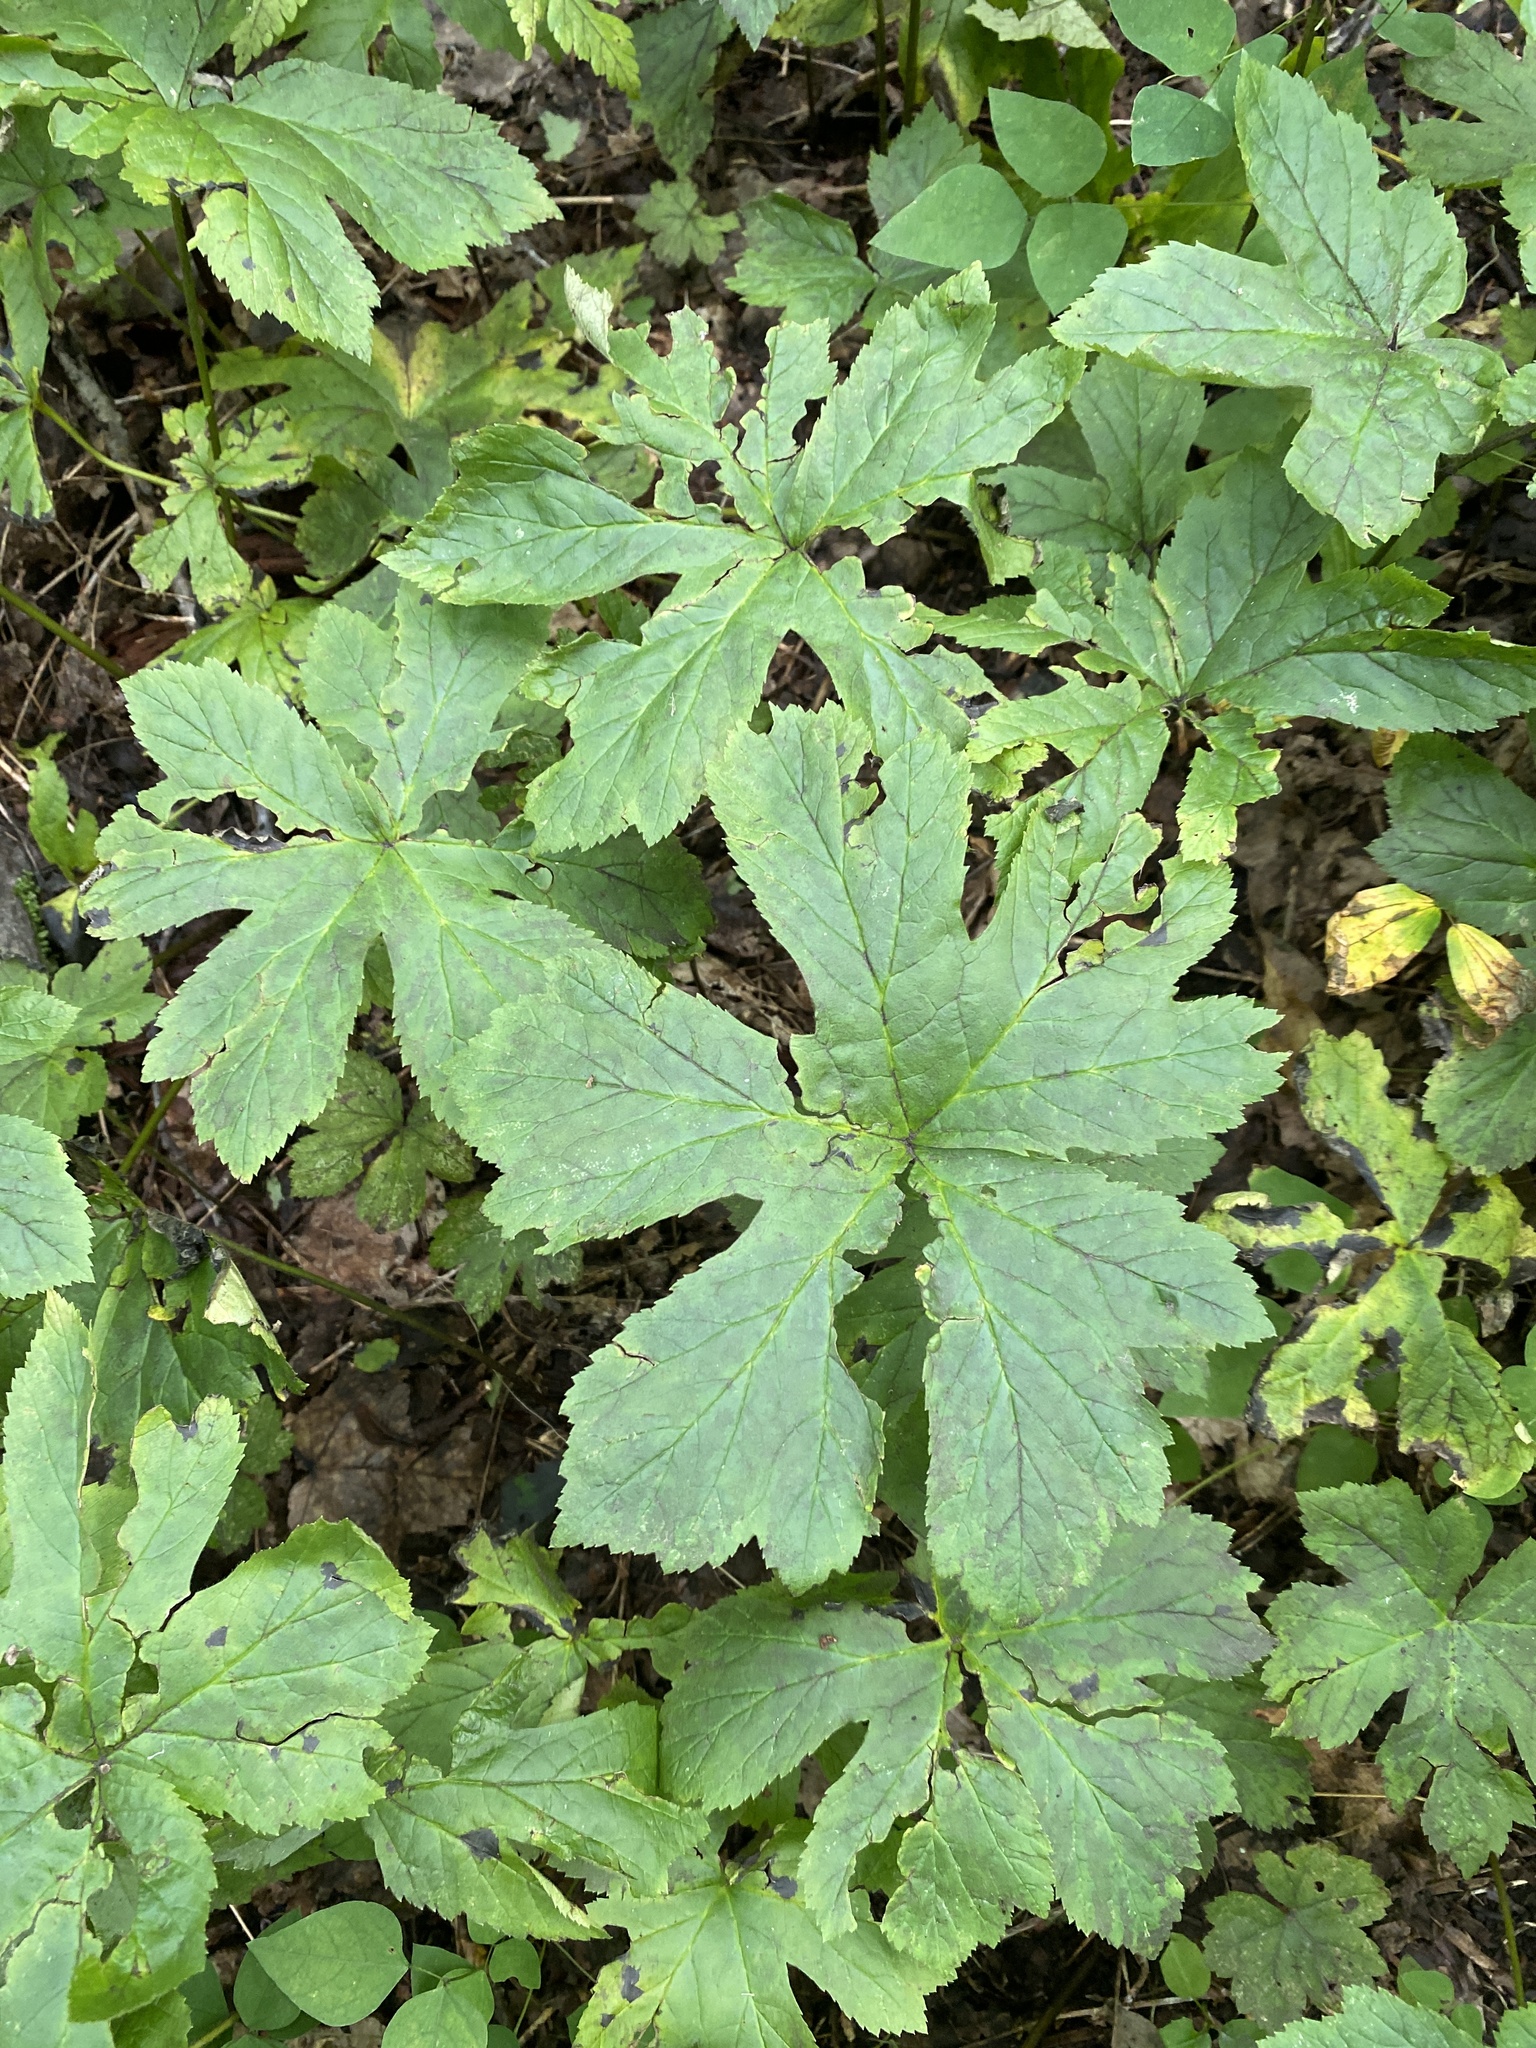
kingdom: Plantae
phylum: Tracheophyta
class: Magnoliopsida
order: Ranunculales
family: Ranunculaceae
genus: Hydrastis
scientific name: Hydrastis canadensis
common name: Goldenseal
